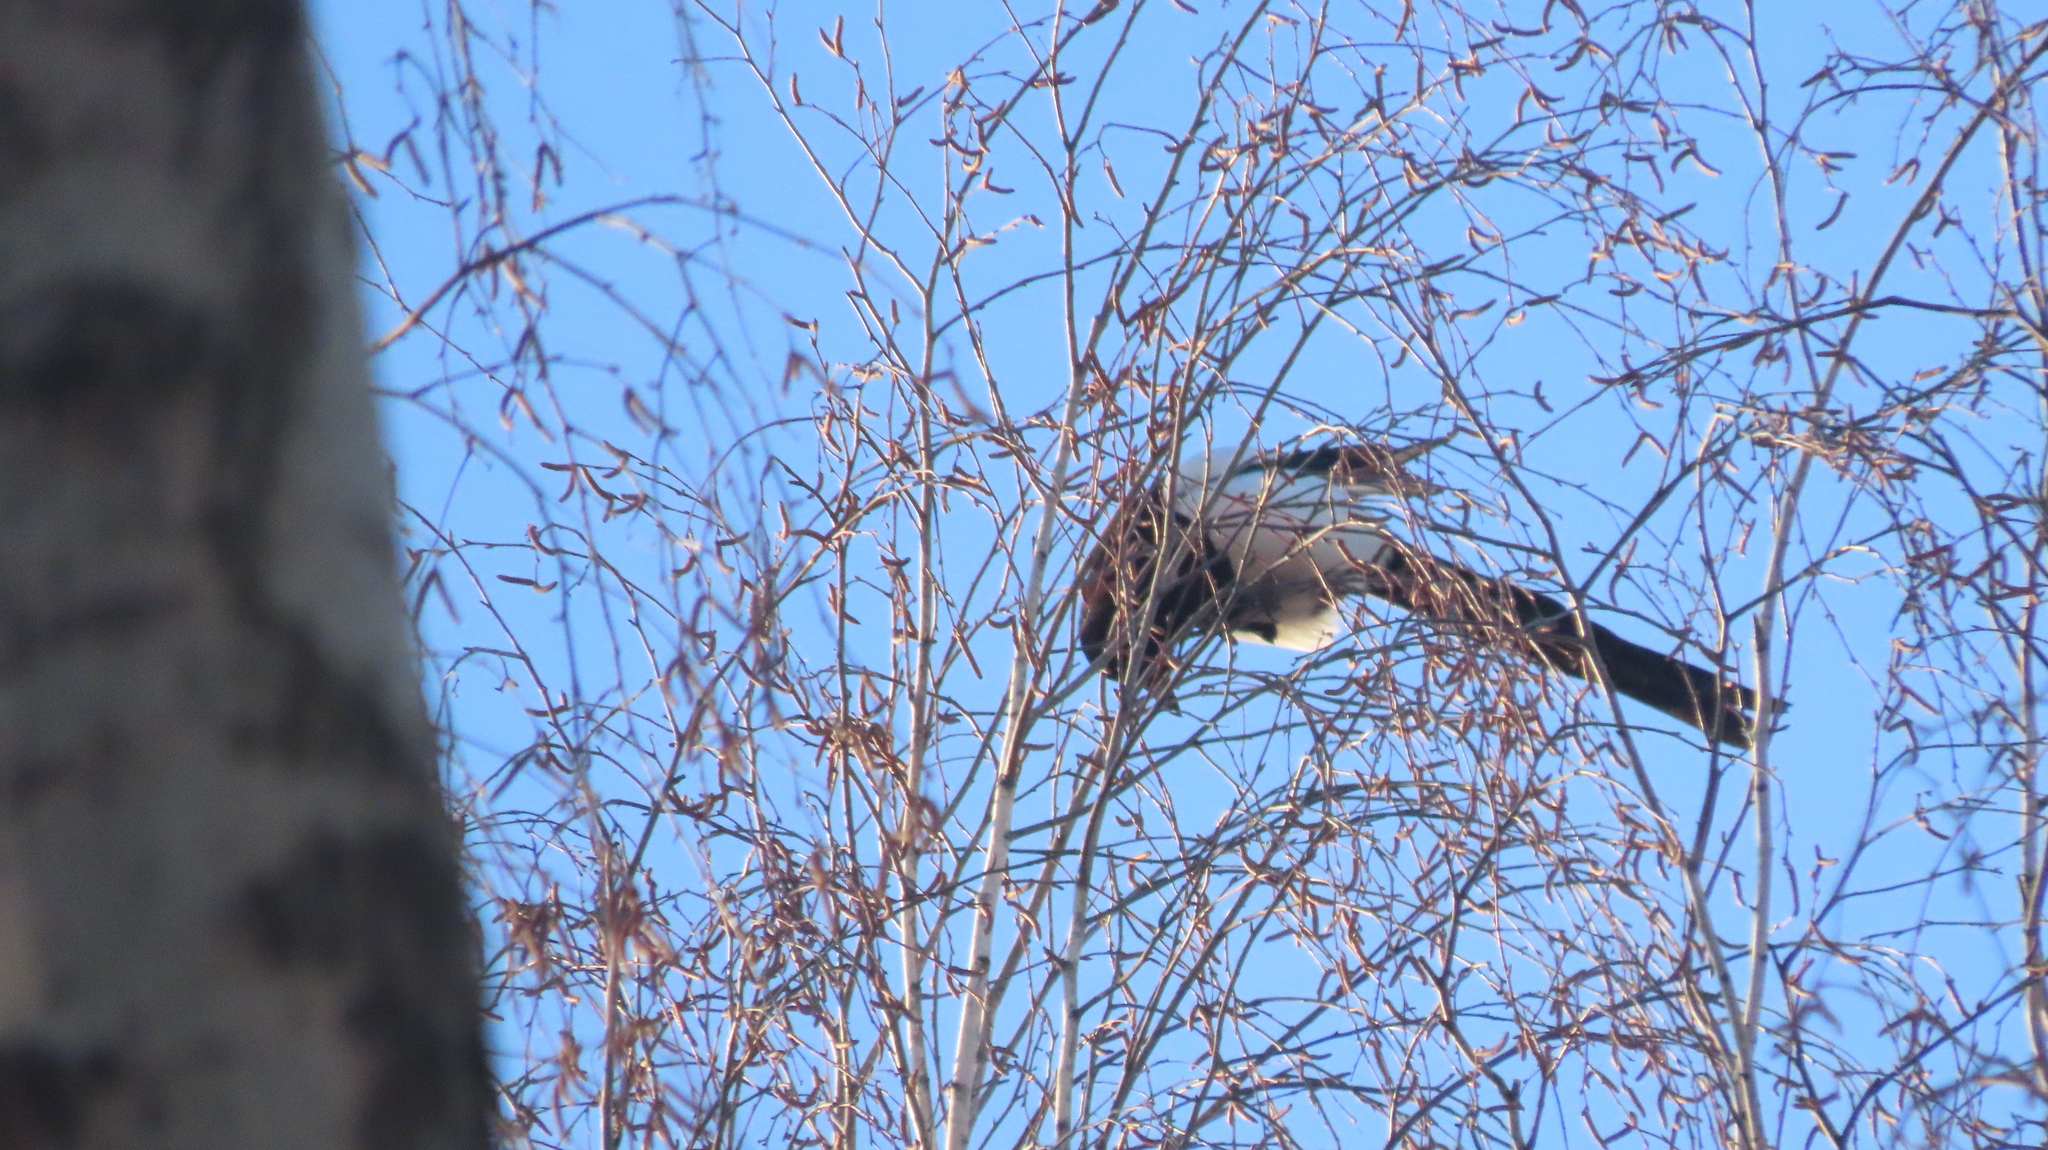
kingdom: Animalia
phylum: Chordata
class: Aves
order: Passeriformes
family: Corvidae
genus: Pica
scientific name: Pica pica
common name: Eurasian magpie
